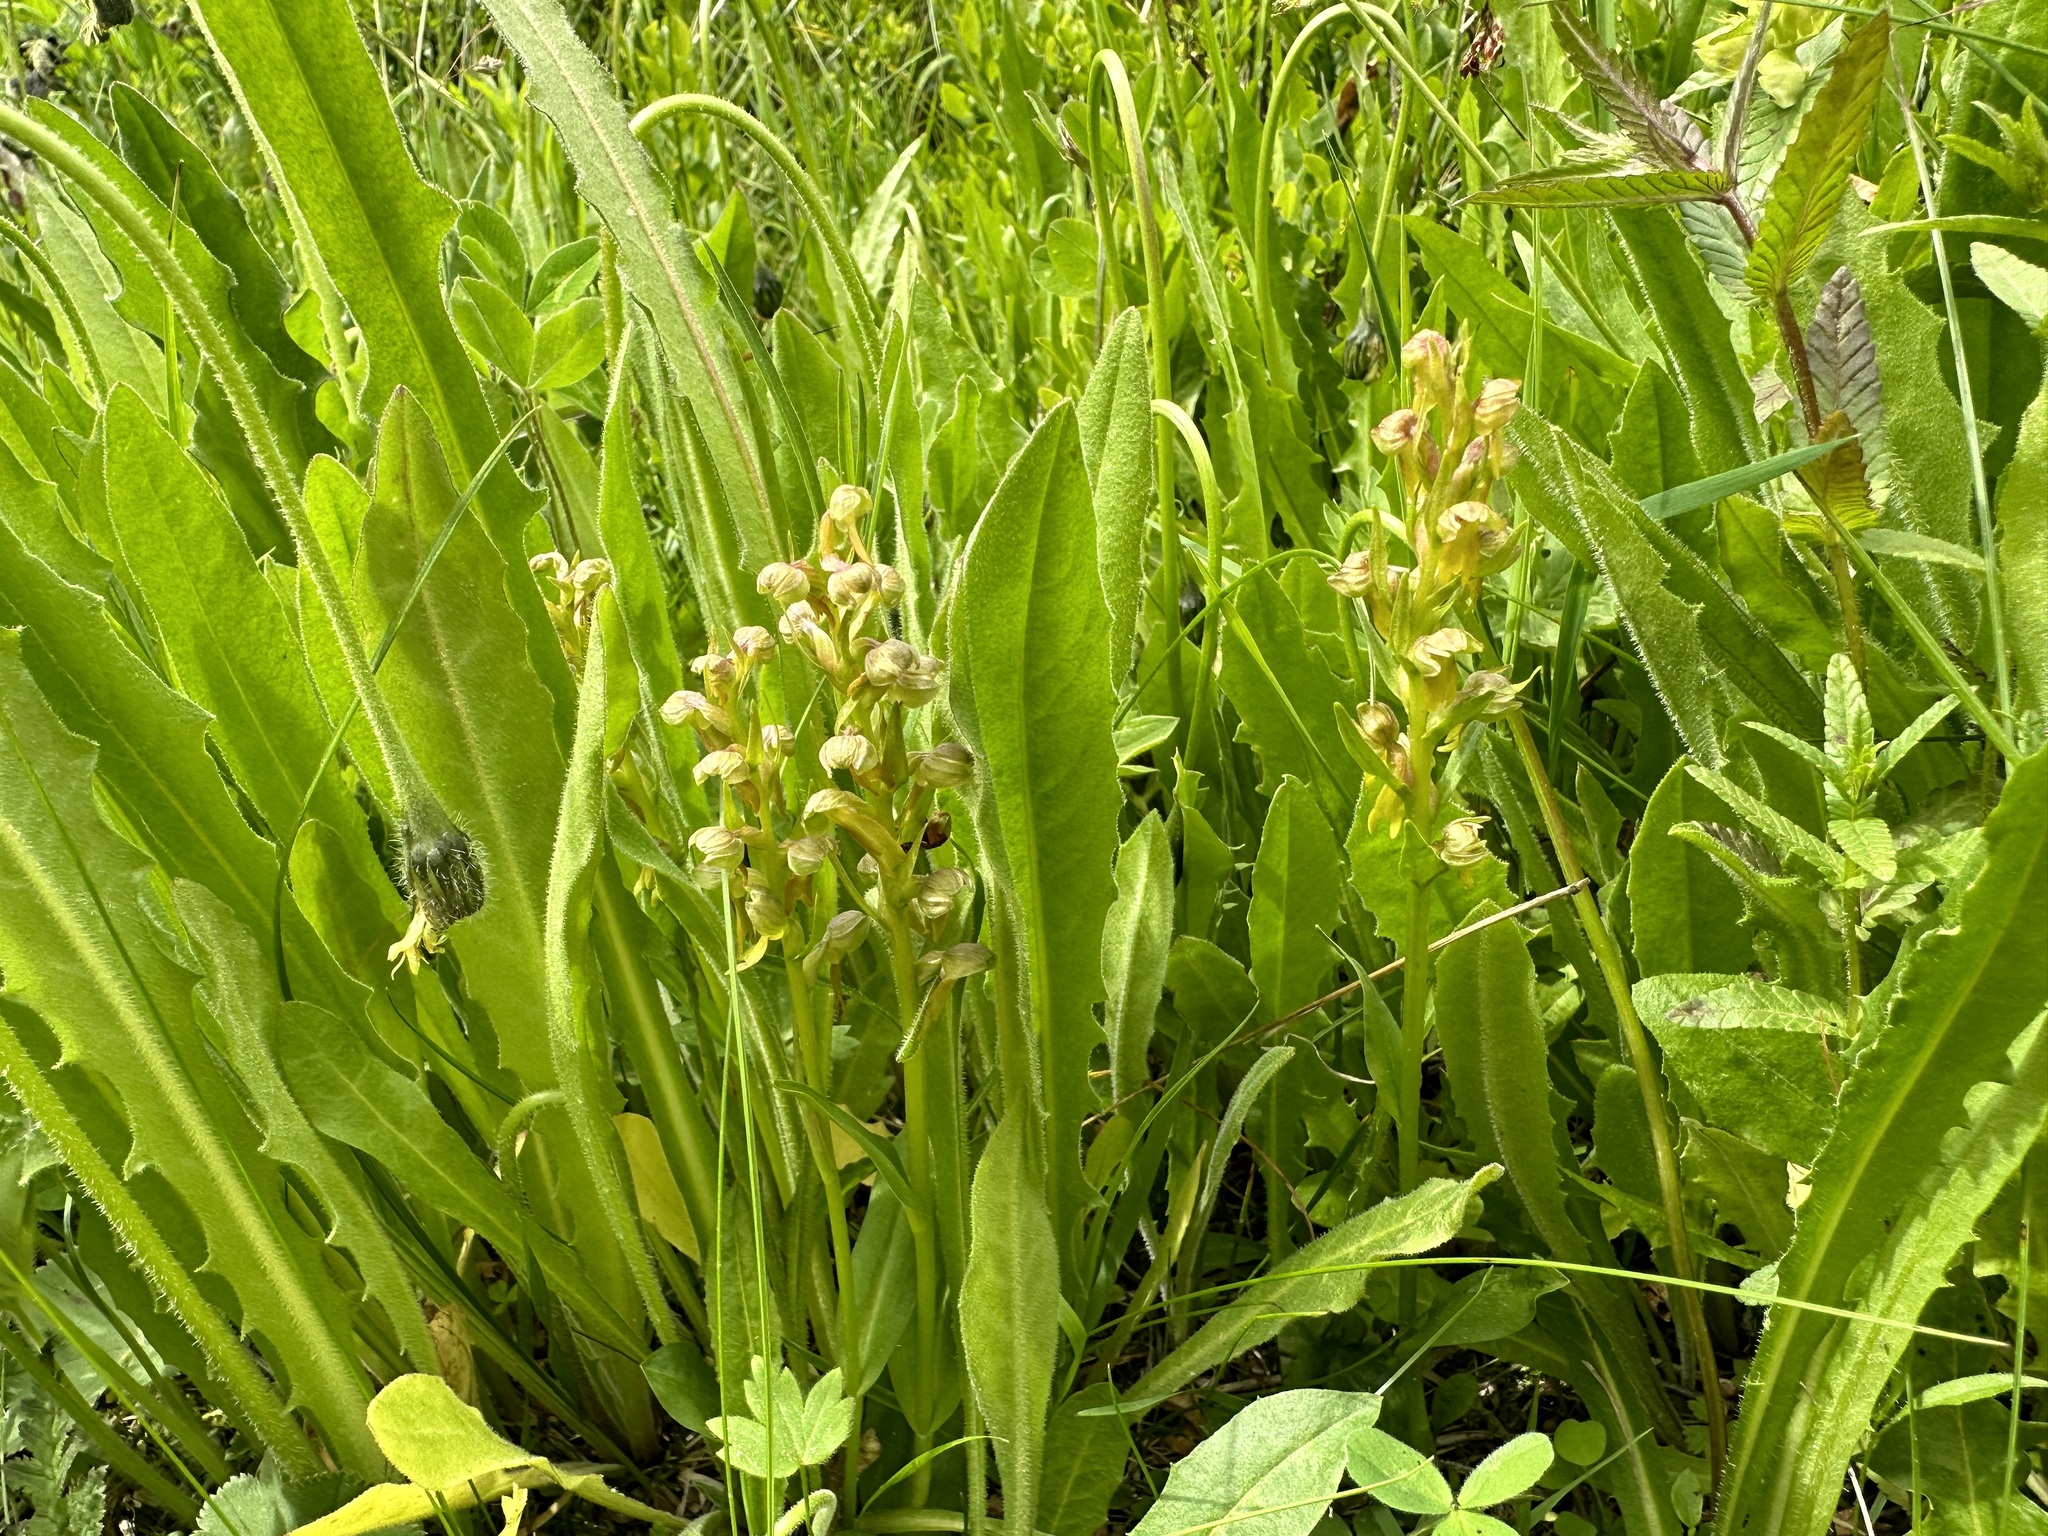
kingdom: Plantae
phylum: Tracheophyta
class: Liliopsida
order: Asparagales
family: Orchidaceae
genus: Dactylorhiza
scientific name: Dactylorhiza viridis
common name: Longbract frog orchid
